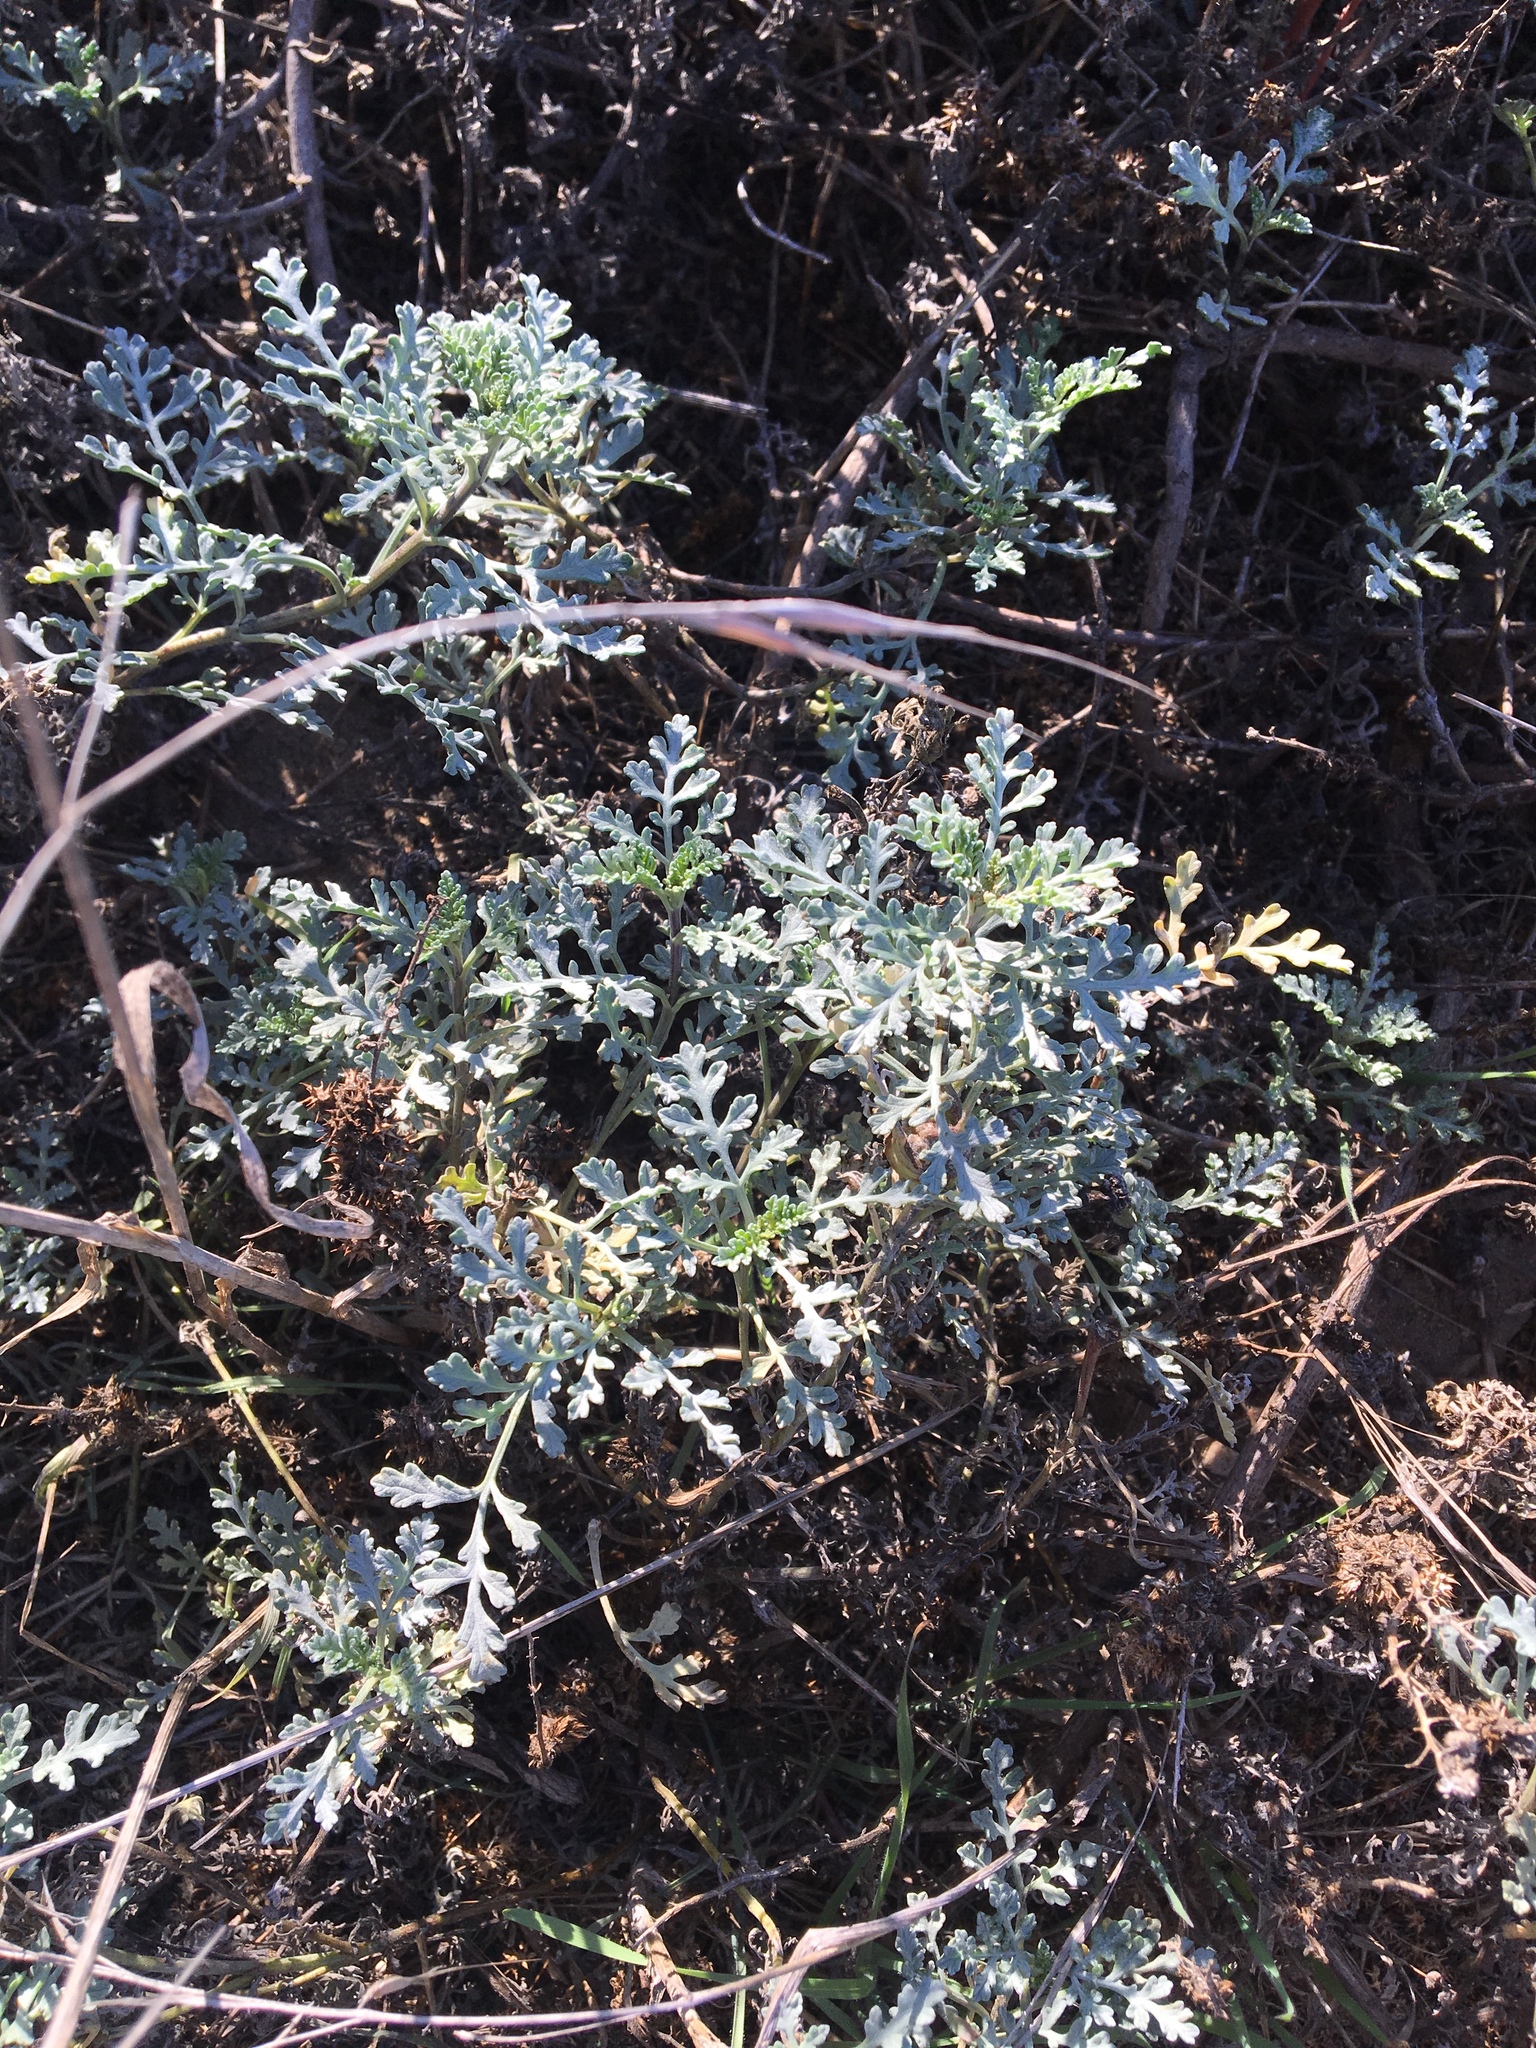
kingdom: Plantae
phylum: Tracheophyta
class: Magnoliopsida
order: Asterales
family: Asteraceae
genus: Ambrosia
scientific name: Ambrosia chamissonis
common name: Beachbur
